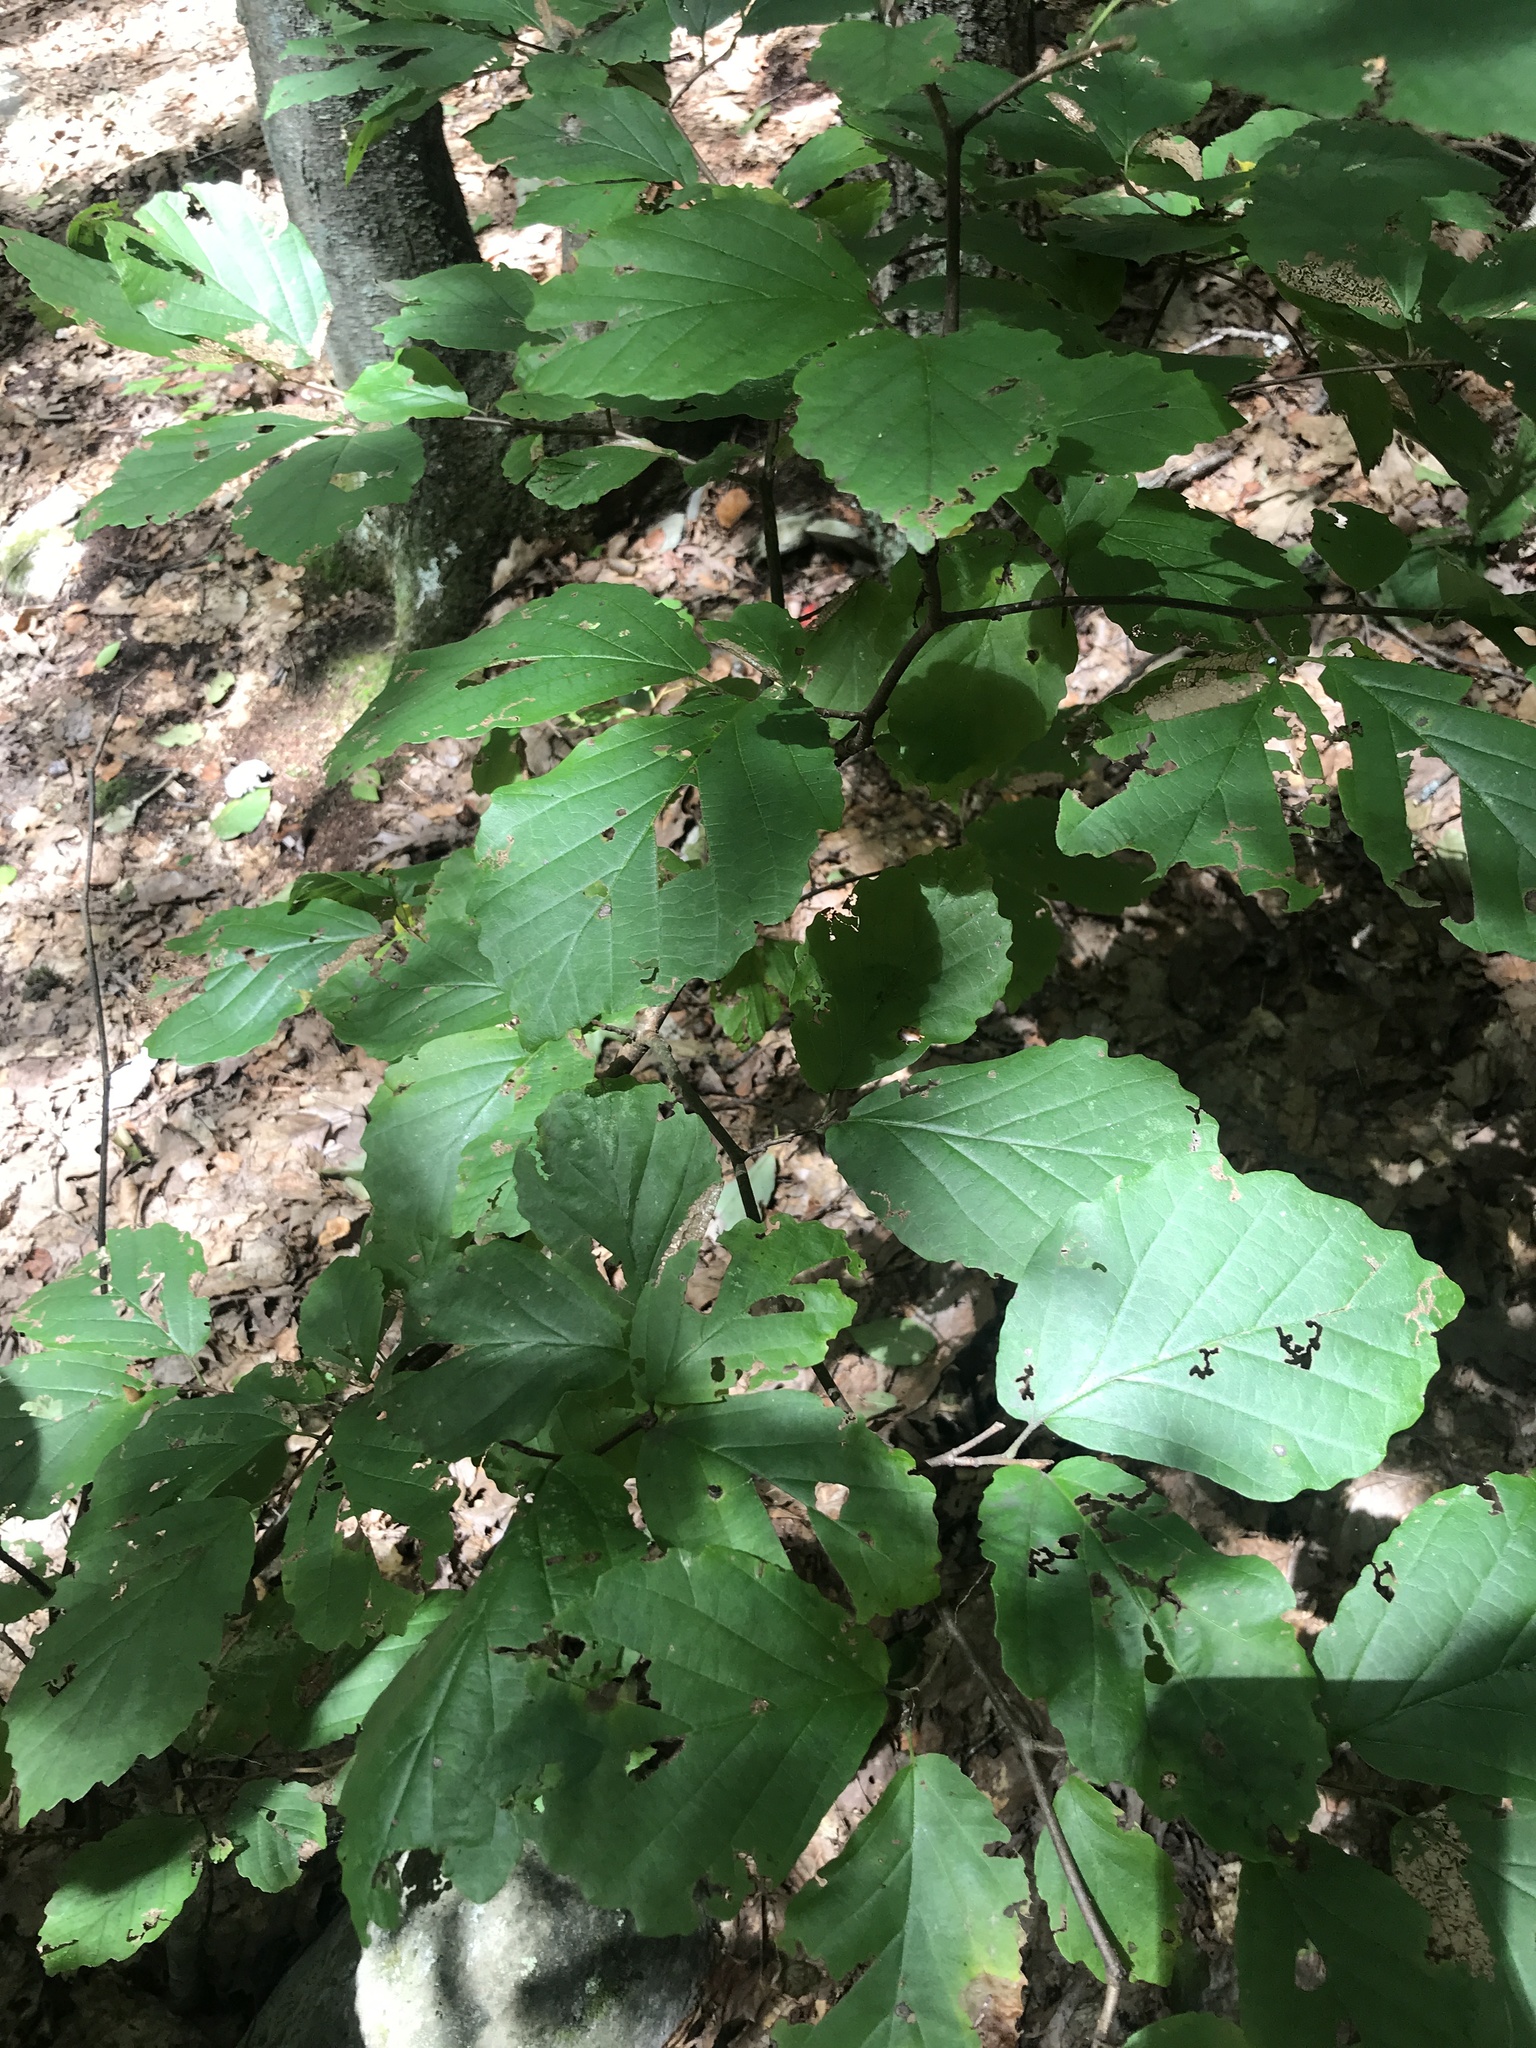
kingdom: Plantae
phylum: Tracheophyta
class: Magnoliopsida
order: Saxifragales
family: Hamamelidaceae
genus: Hamamelis
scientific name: Hamamelis virginiana
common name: Witch-hazel
